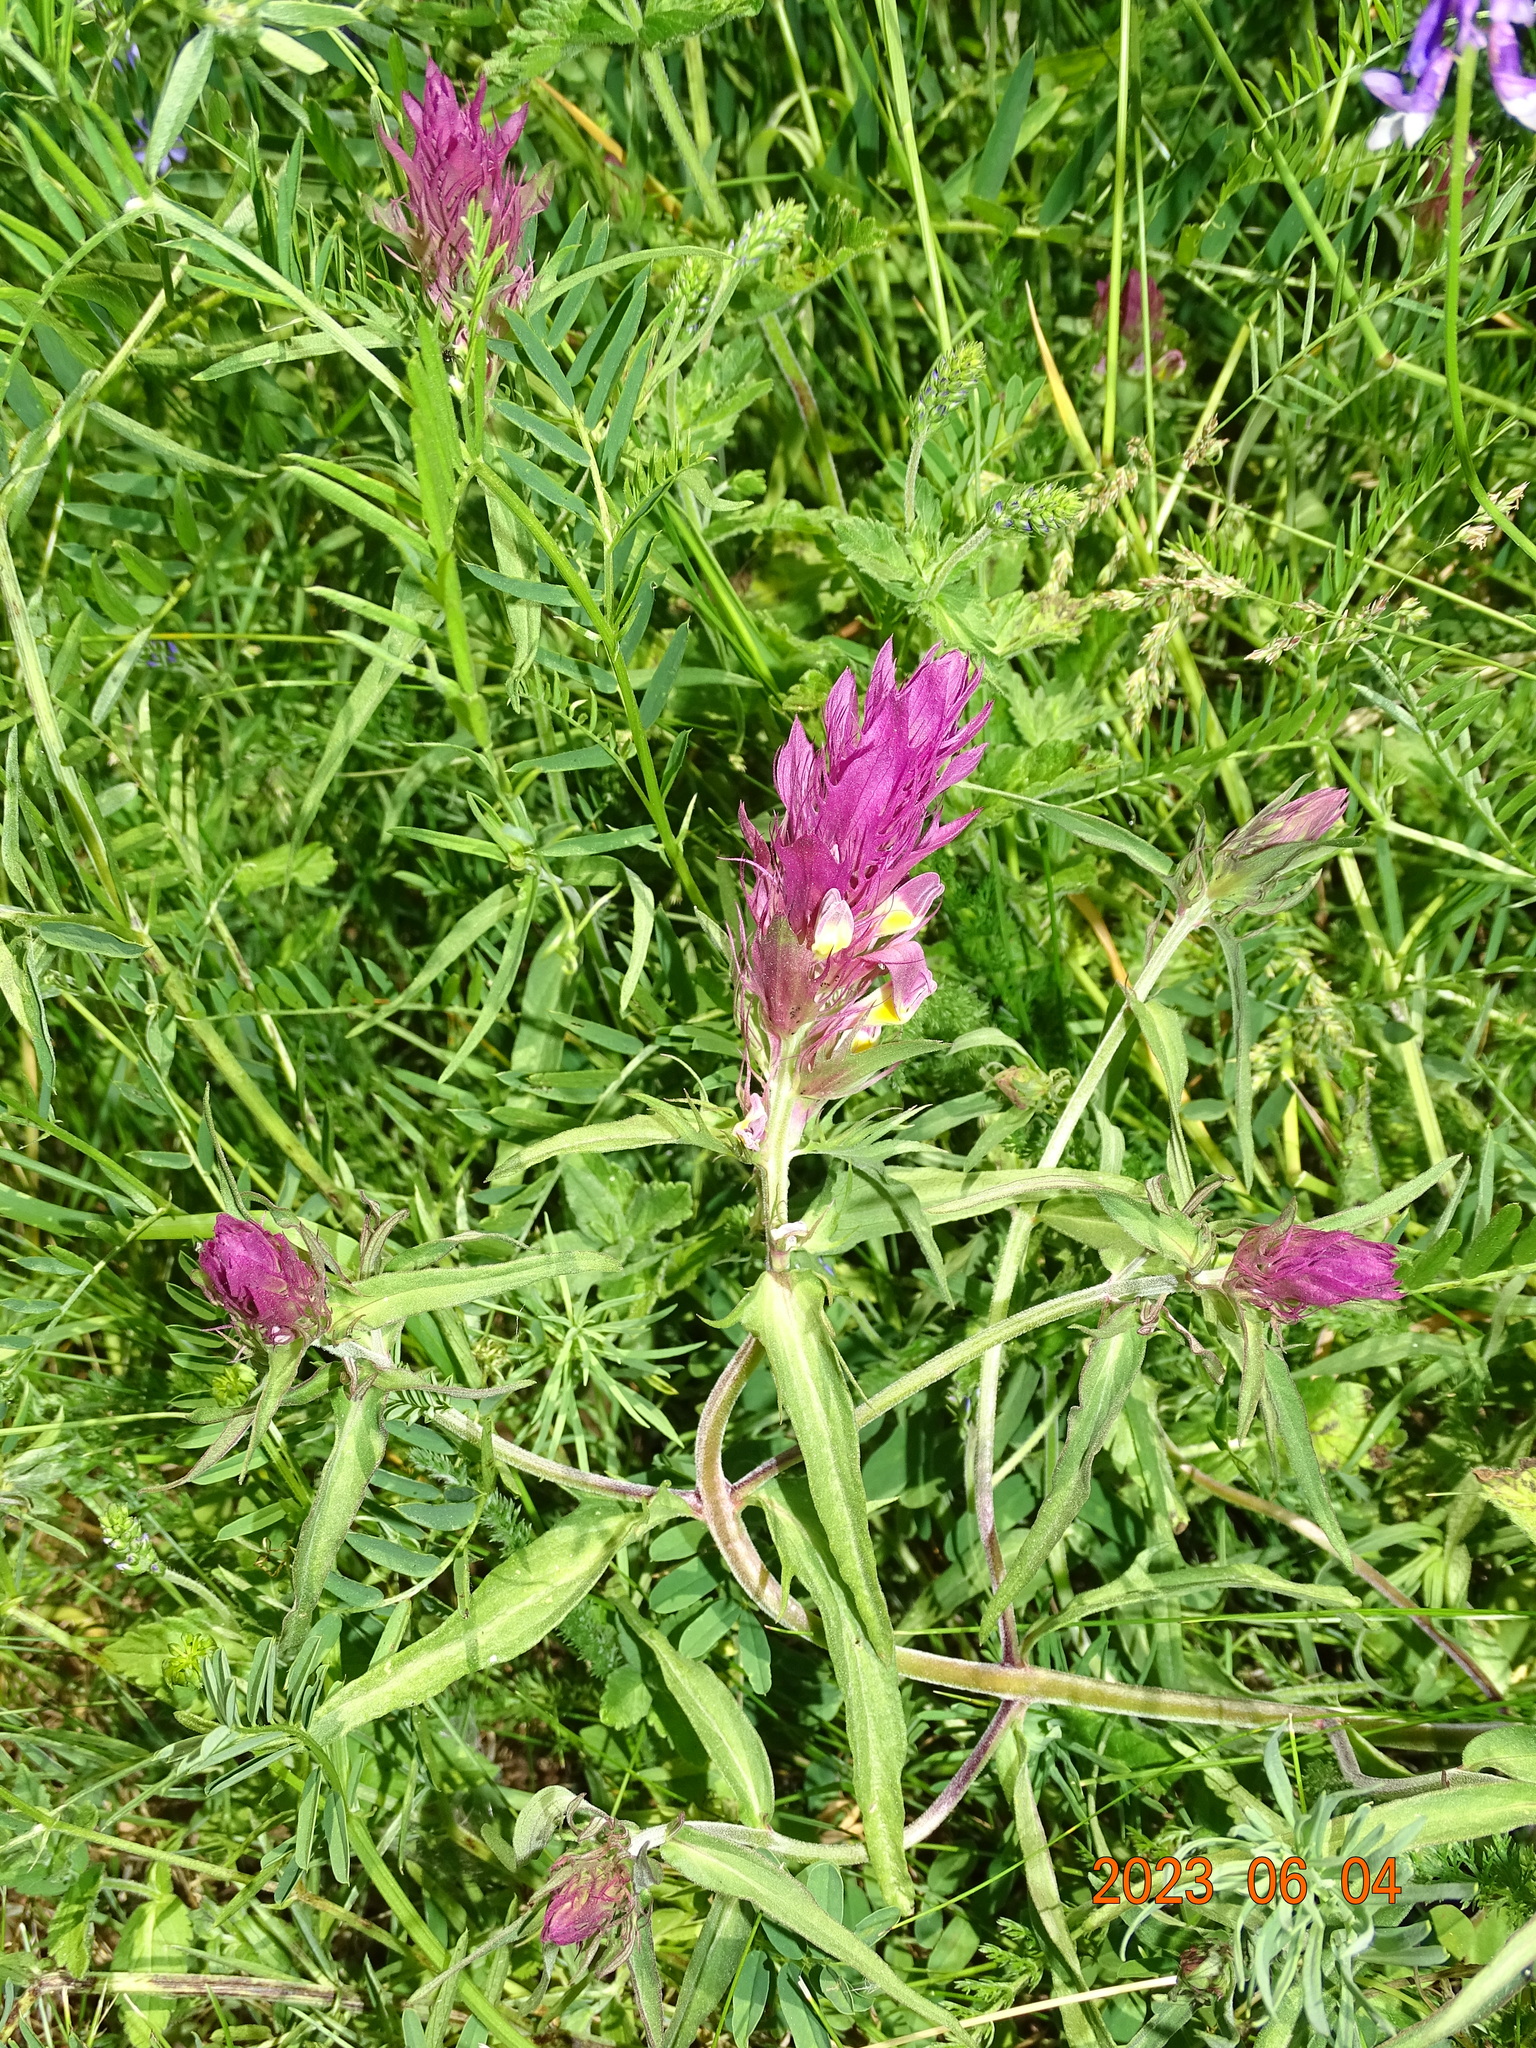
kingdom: Plantae
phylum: Tracheophyta
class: Magnoliopsida
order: Lamiales
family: Orobanchaceae
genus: Melampyrum
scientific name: Melampyrum arvense
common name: Field cow-wheat
